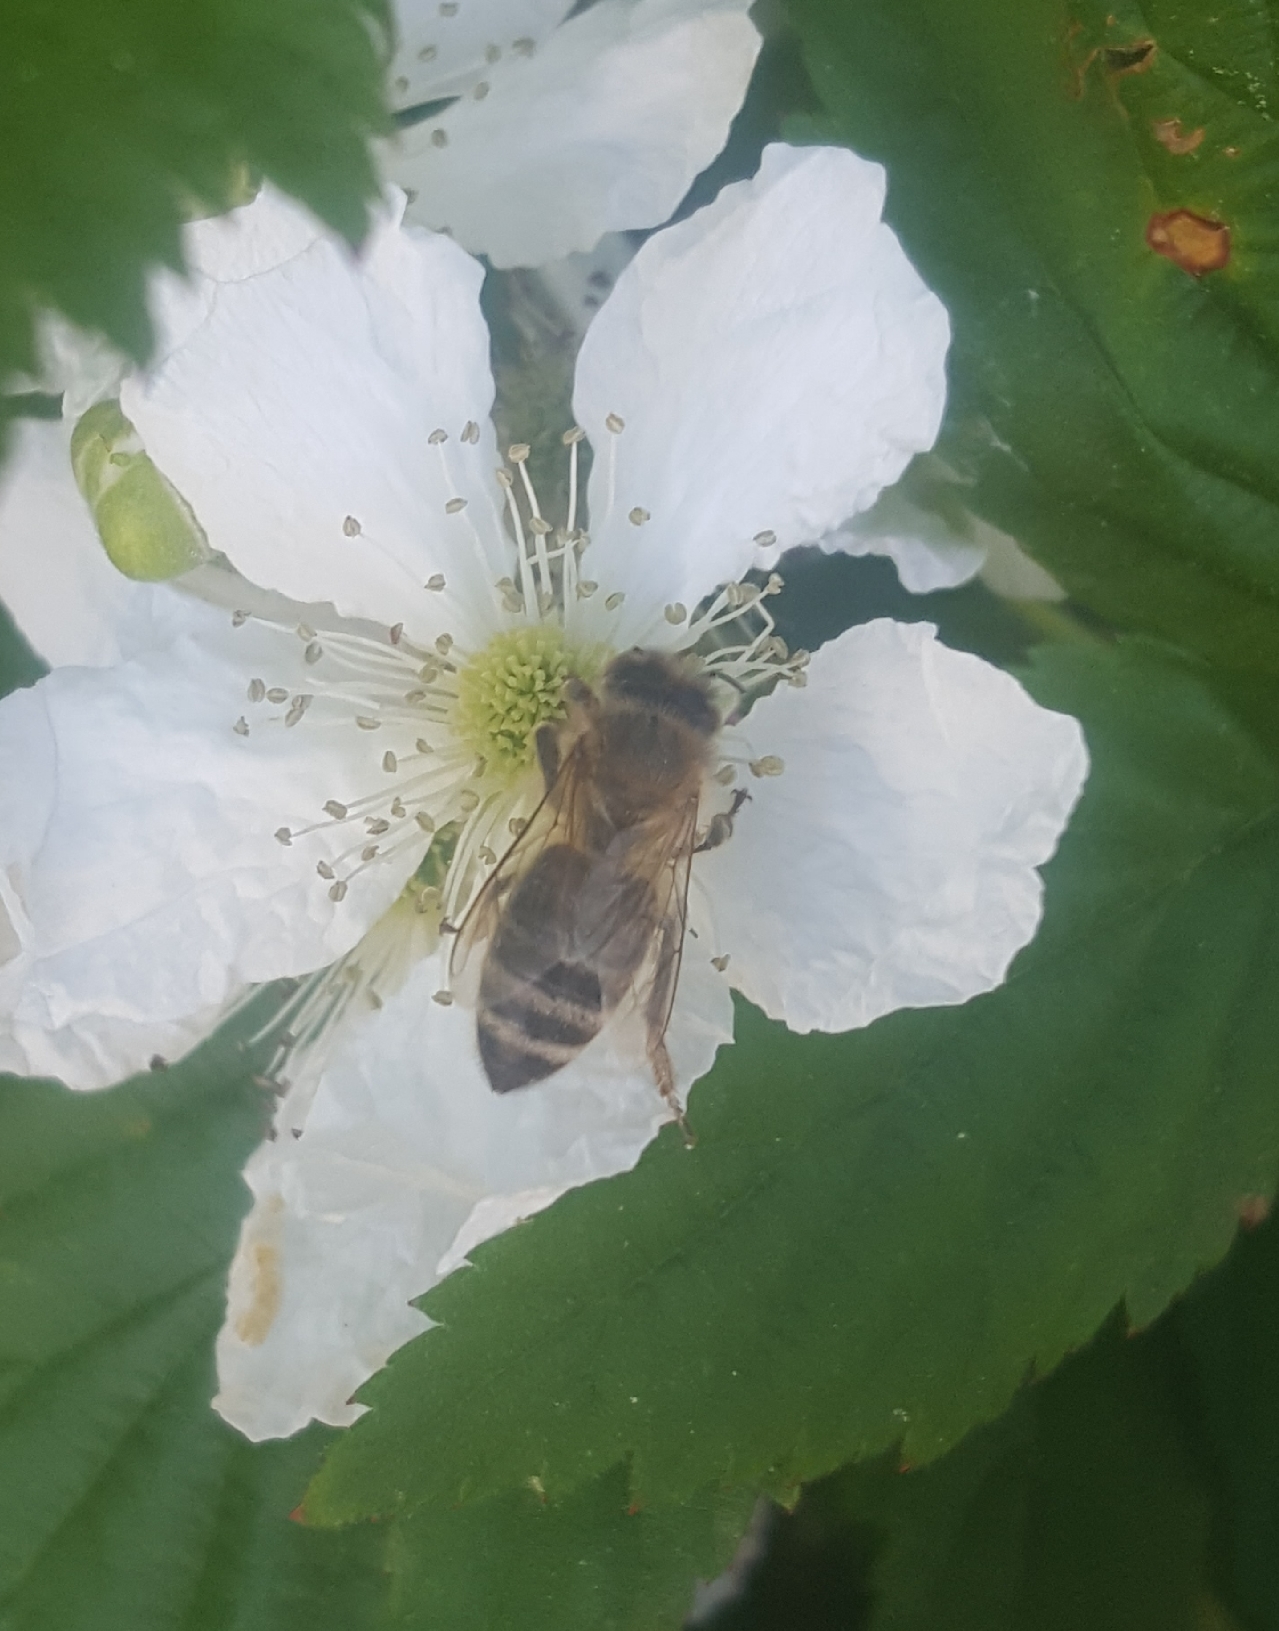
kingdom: Animalia
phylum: Arthropoda
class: Insecta
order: Hymenoptera
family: Apidae
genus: Apis
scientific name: Apis mellifera
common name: Honey bee
